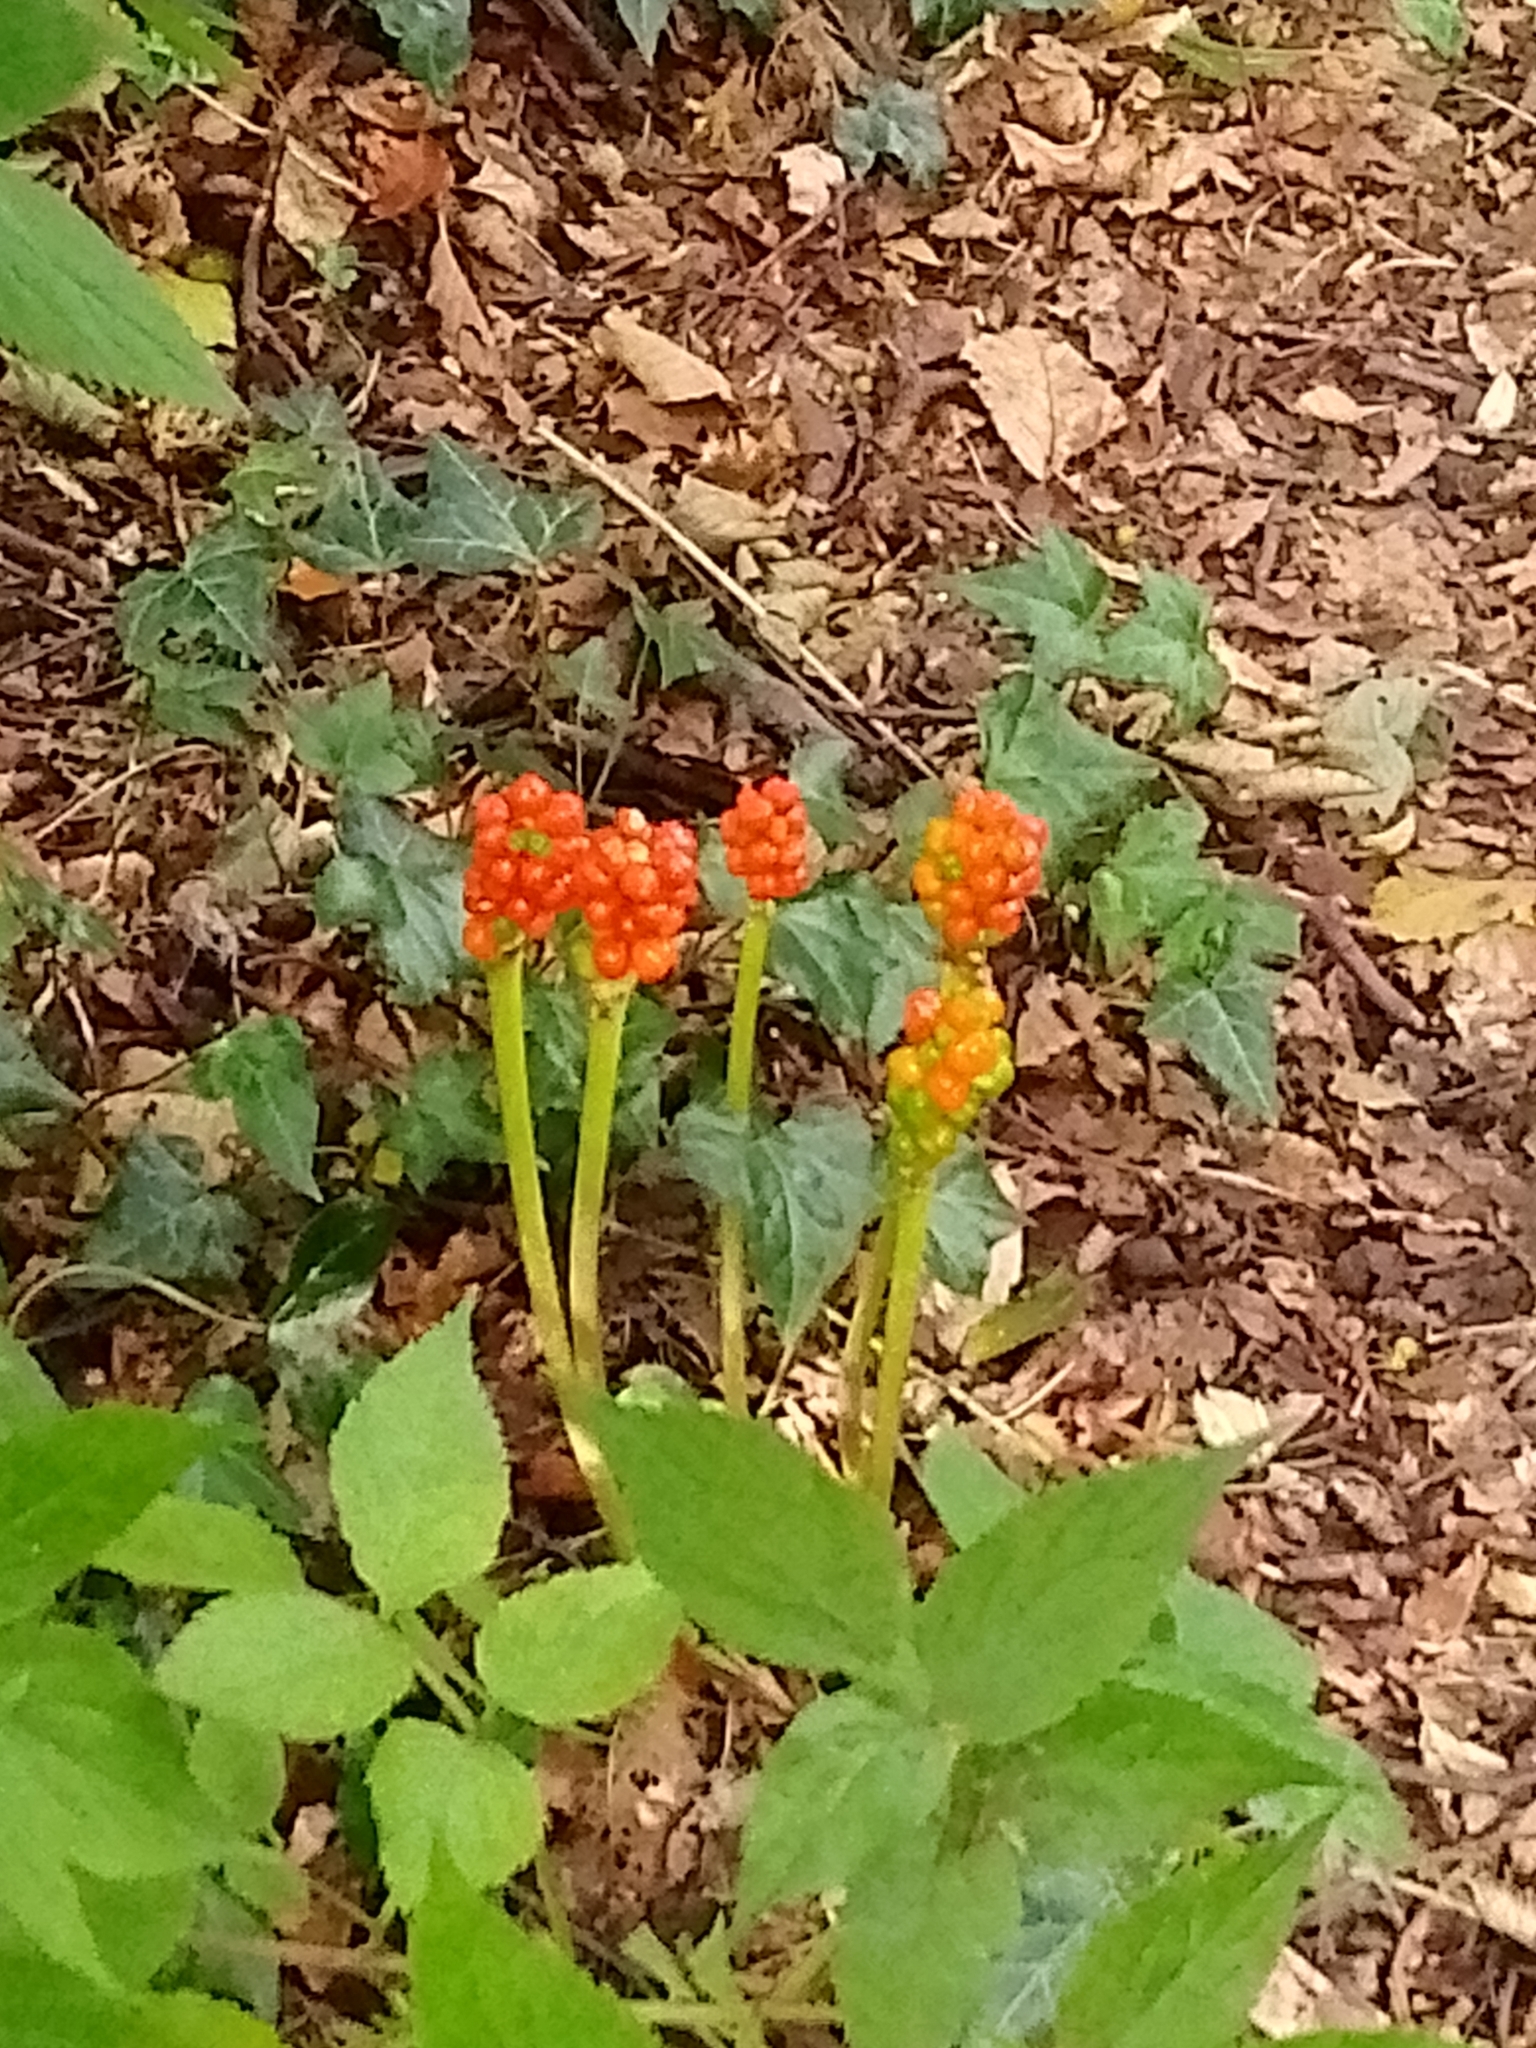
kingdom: Plantae
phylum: Tracheophyta
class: Liliopsida
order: Alismatales
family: Araceae
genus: Arum
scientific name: Arum maculatum
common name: Lords-and-ladies
